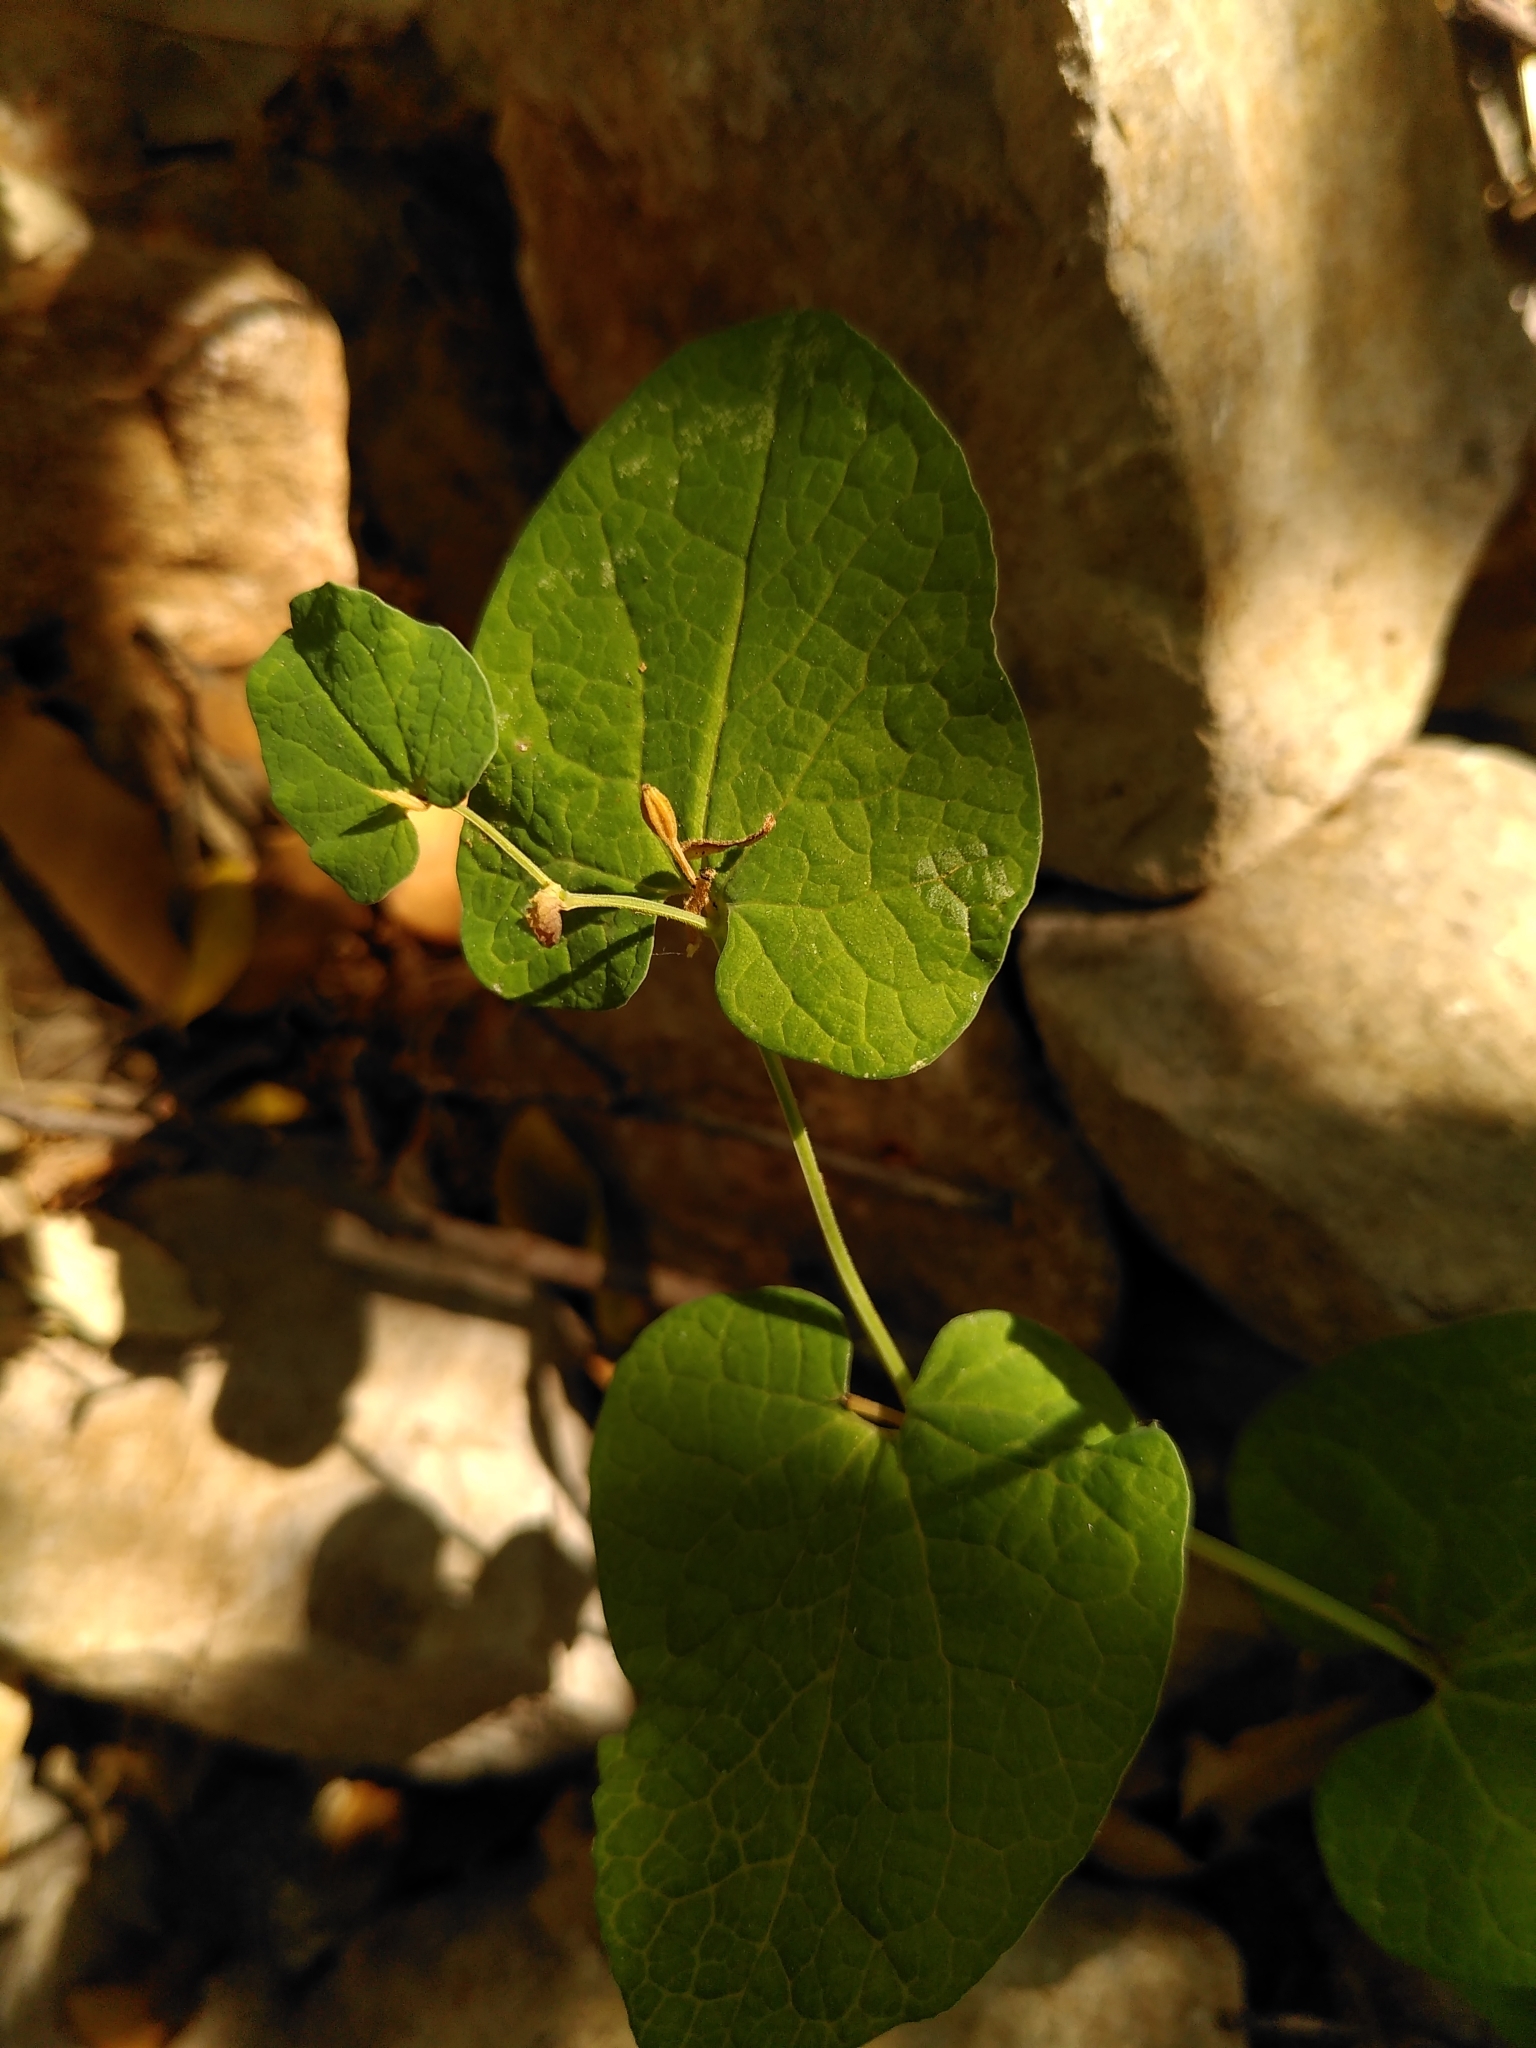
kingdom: Plantae
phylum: Tracheophyta
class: Magnoliopsida
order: Piperales
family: Aristolochiaceae
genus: Aristolochia
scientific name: Aristolochia rotunda
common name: Smearwort
